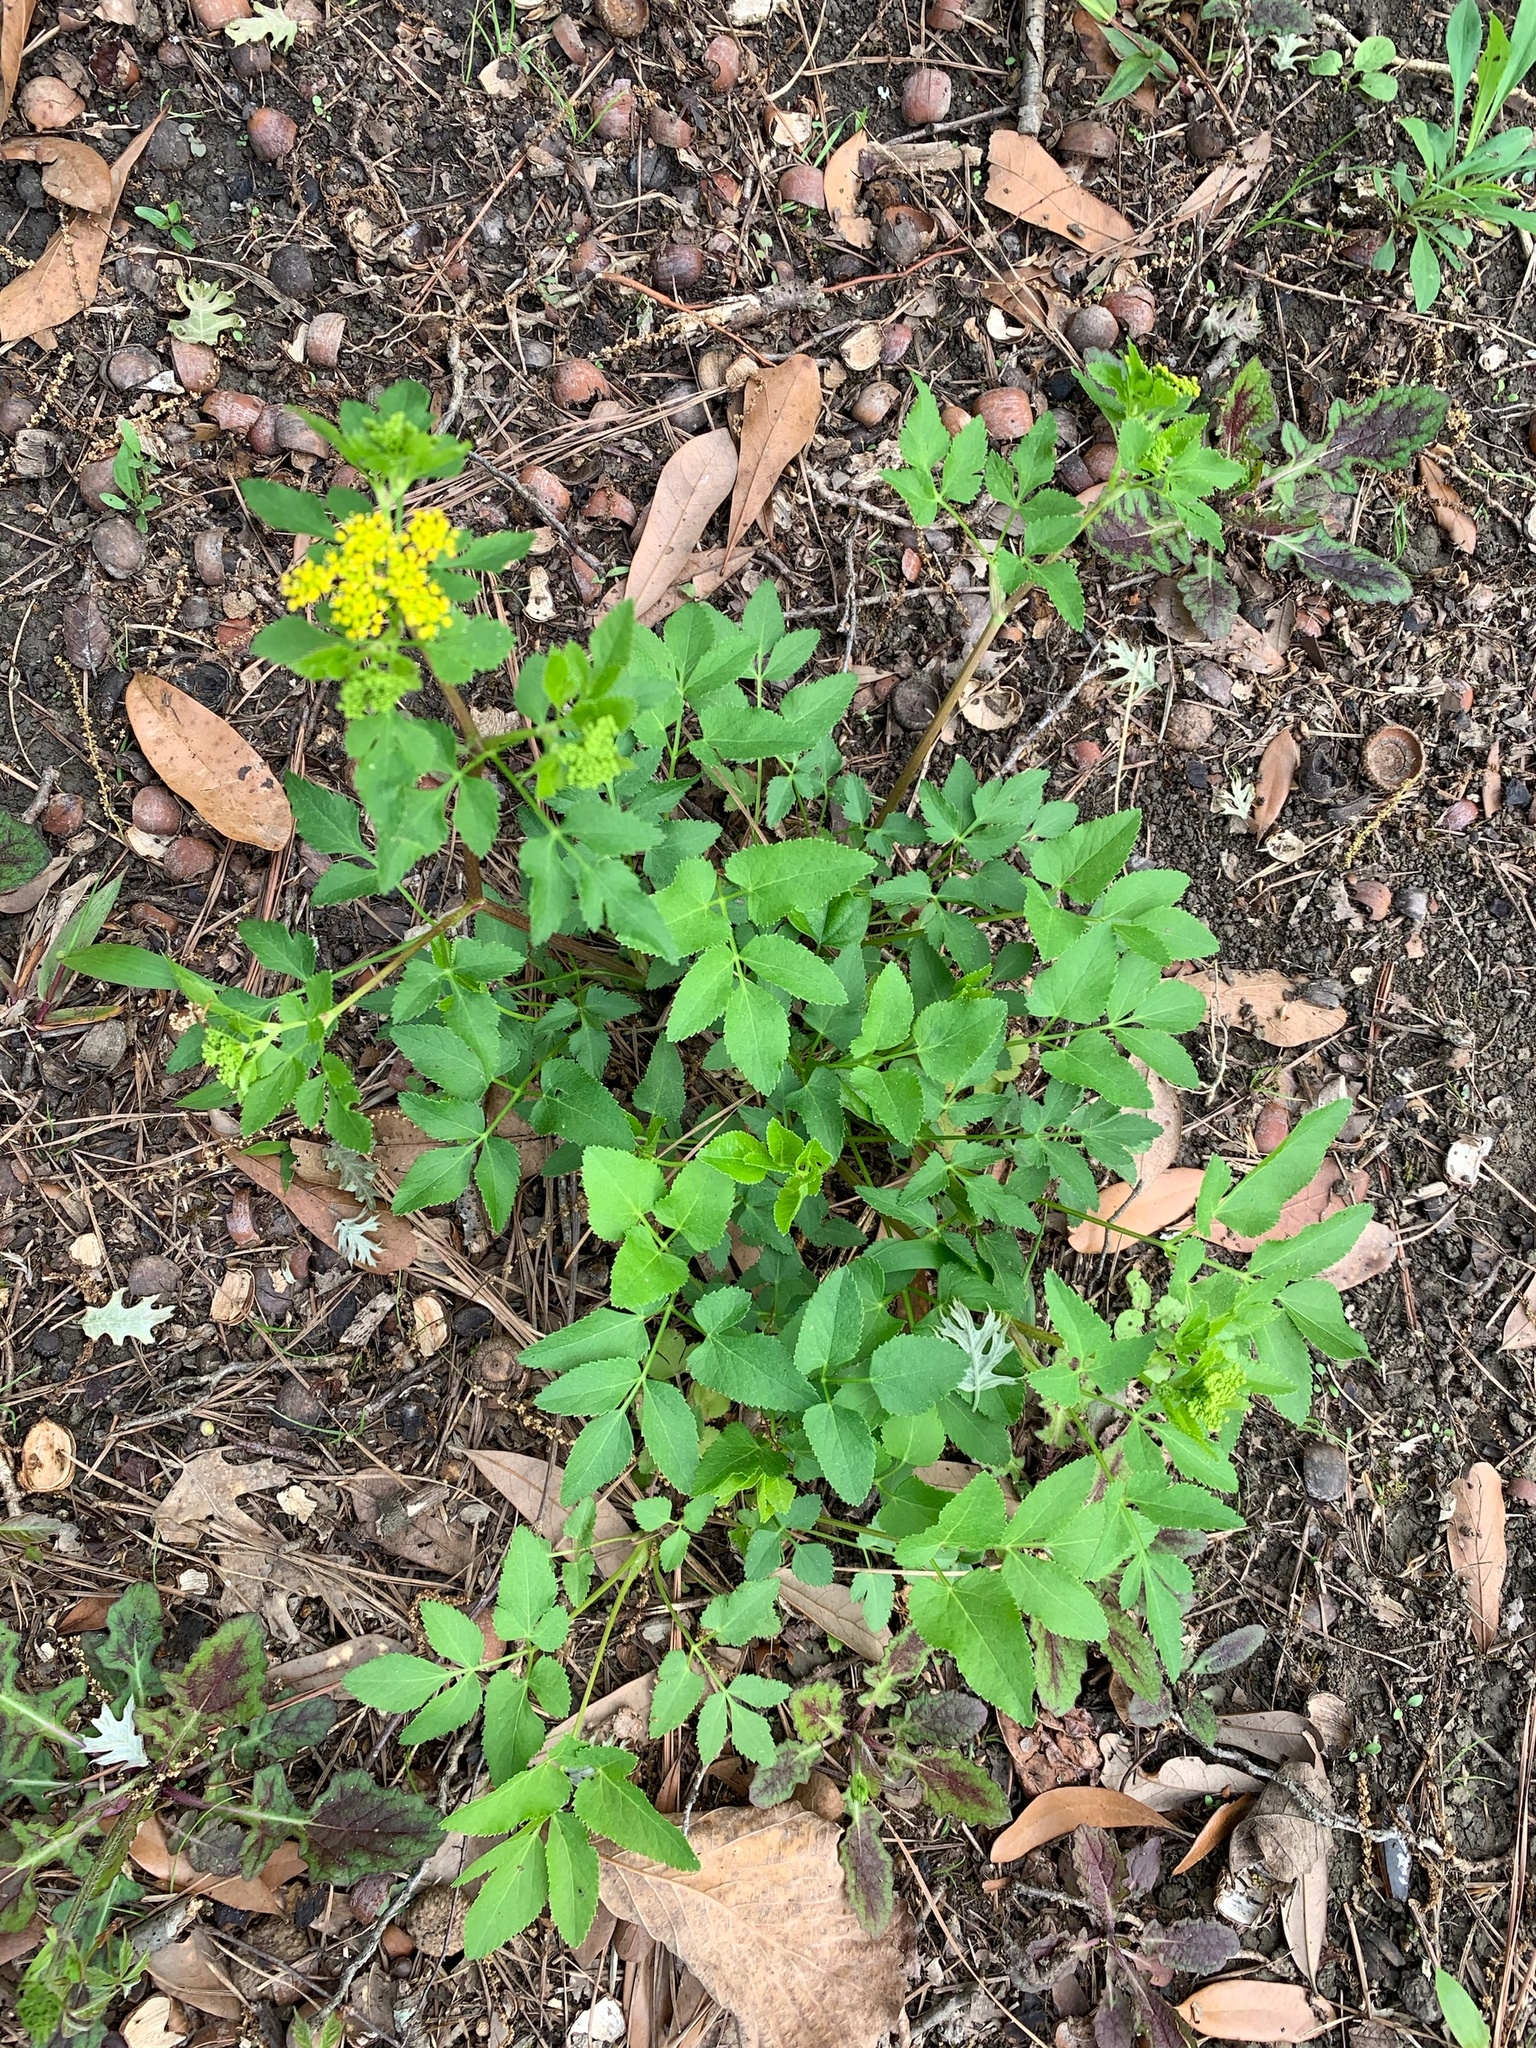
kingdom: Plantae
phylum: Tracheophyta
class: Magnoliopsida
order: Apiales
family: Apiaceae
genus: Zizia
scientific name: Zizia aurea
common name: Golden alexanders
